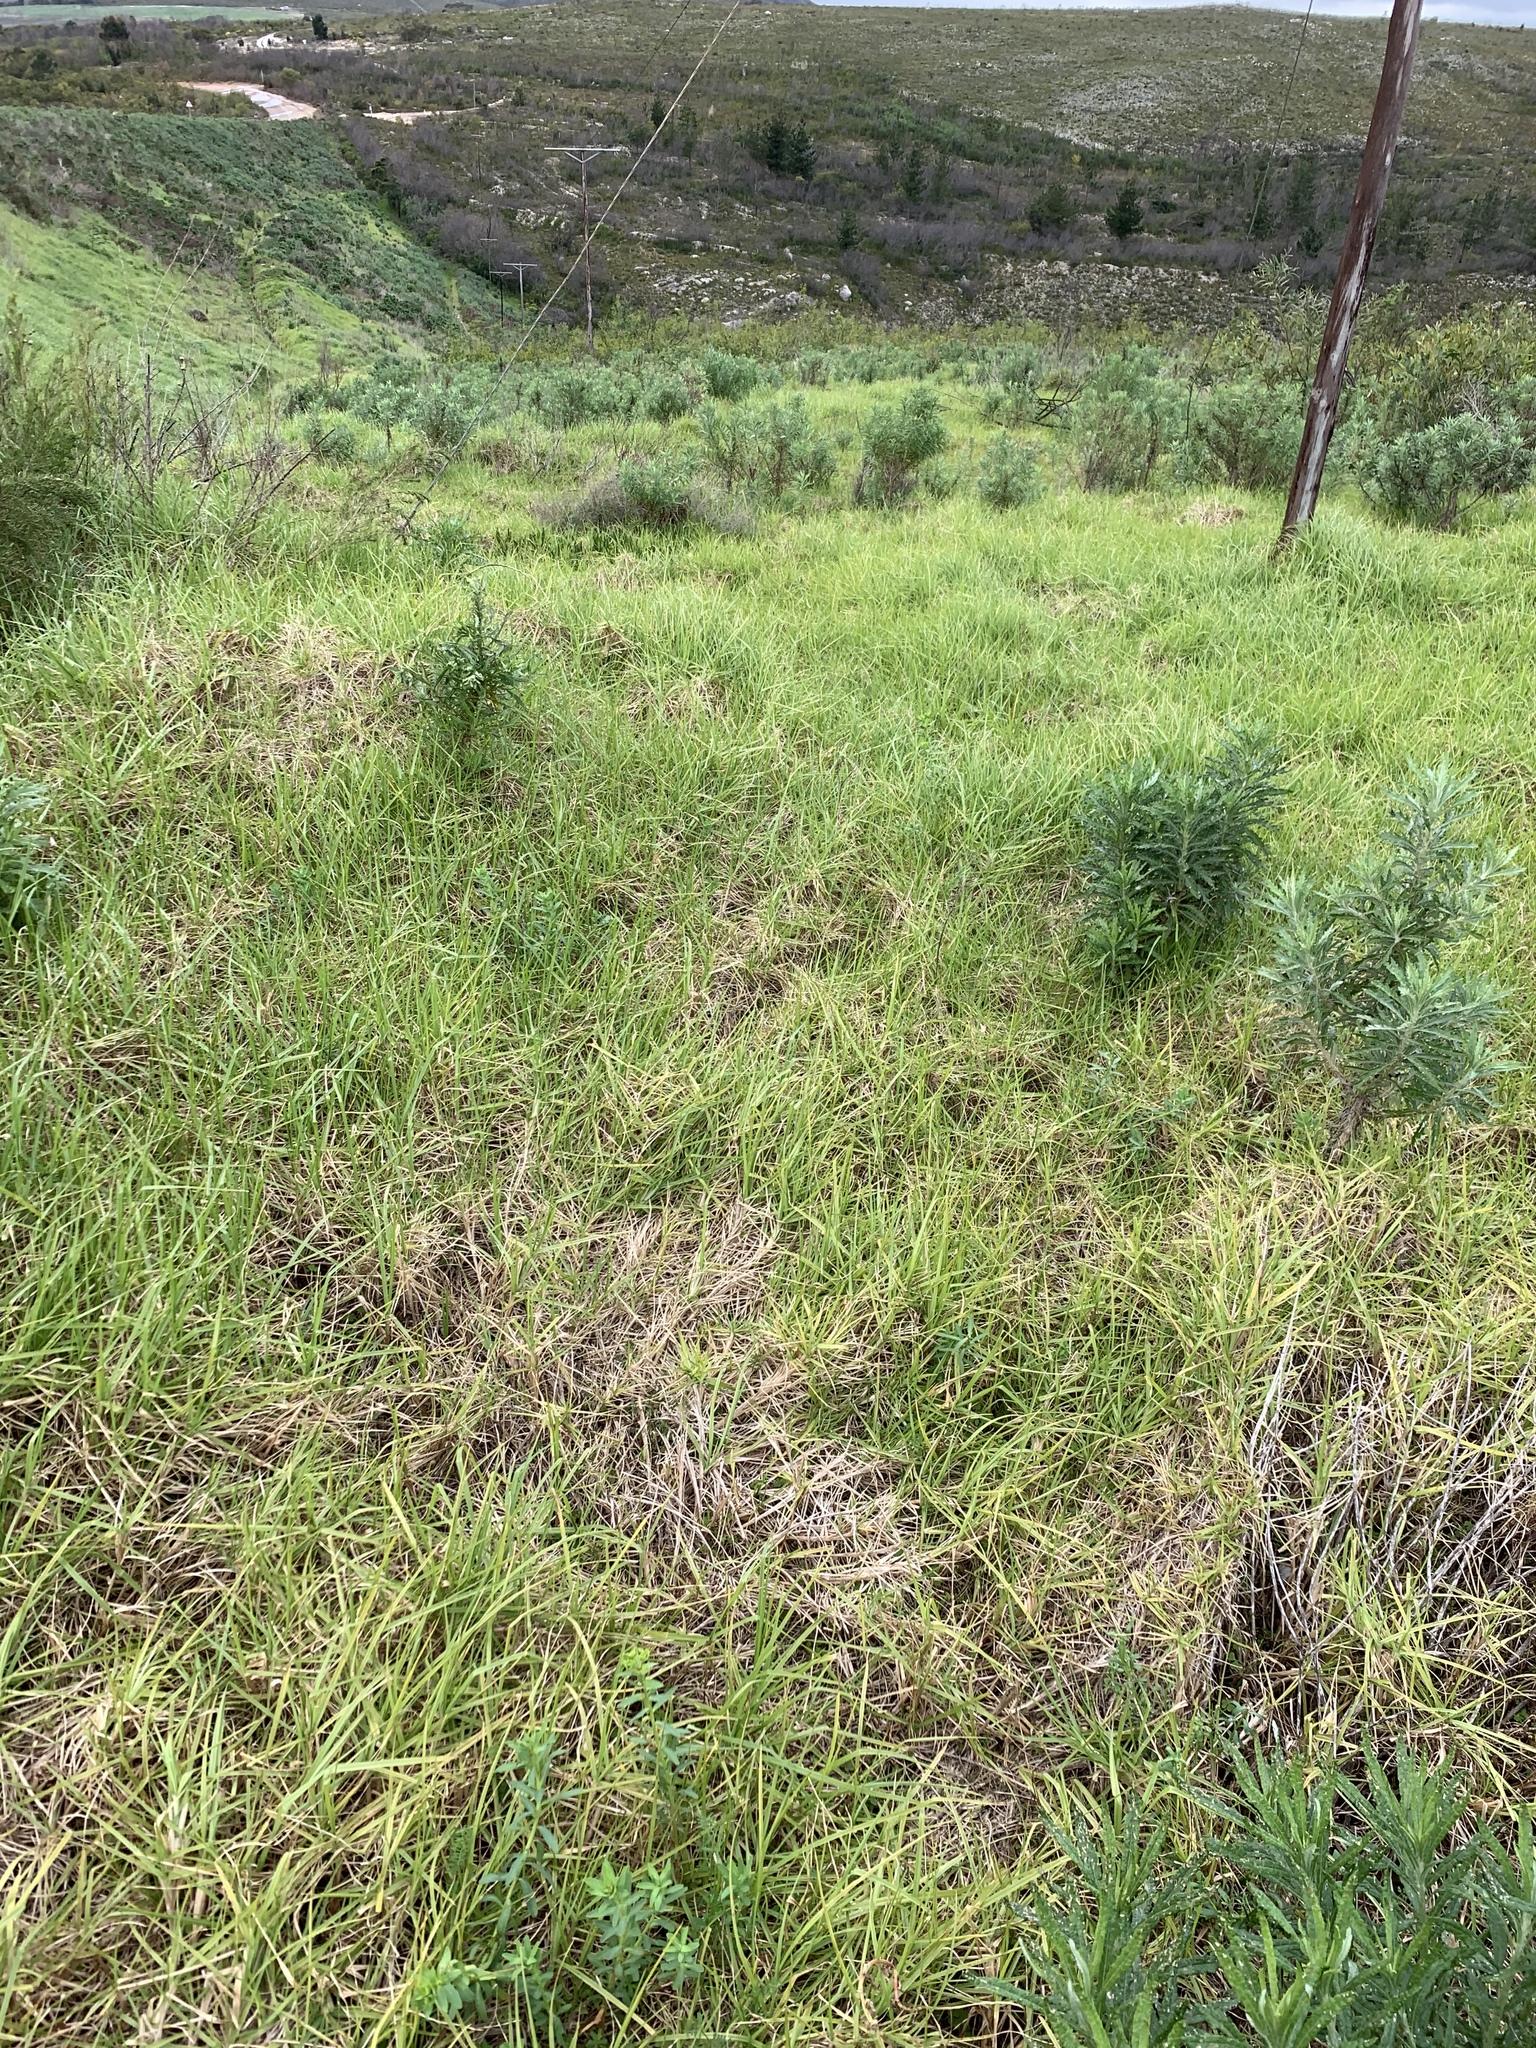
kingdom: Plantae
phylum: Tracheophyta
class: Liliopsida
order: Poales
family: Poaceae
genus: Cenchrus
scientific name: Cenchrus clandestinus
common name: Kikuyugrass
